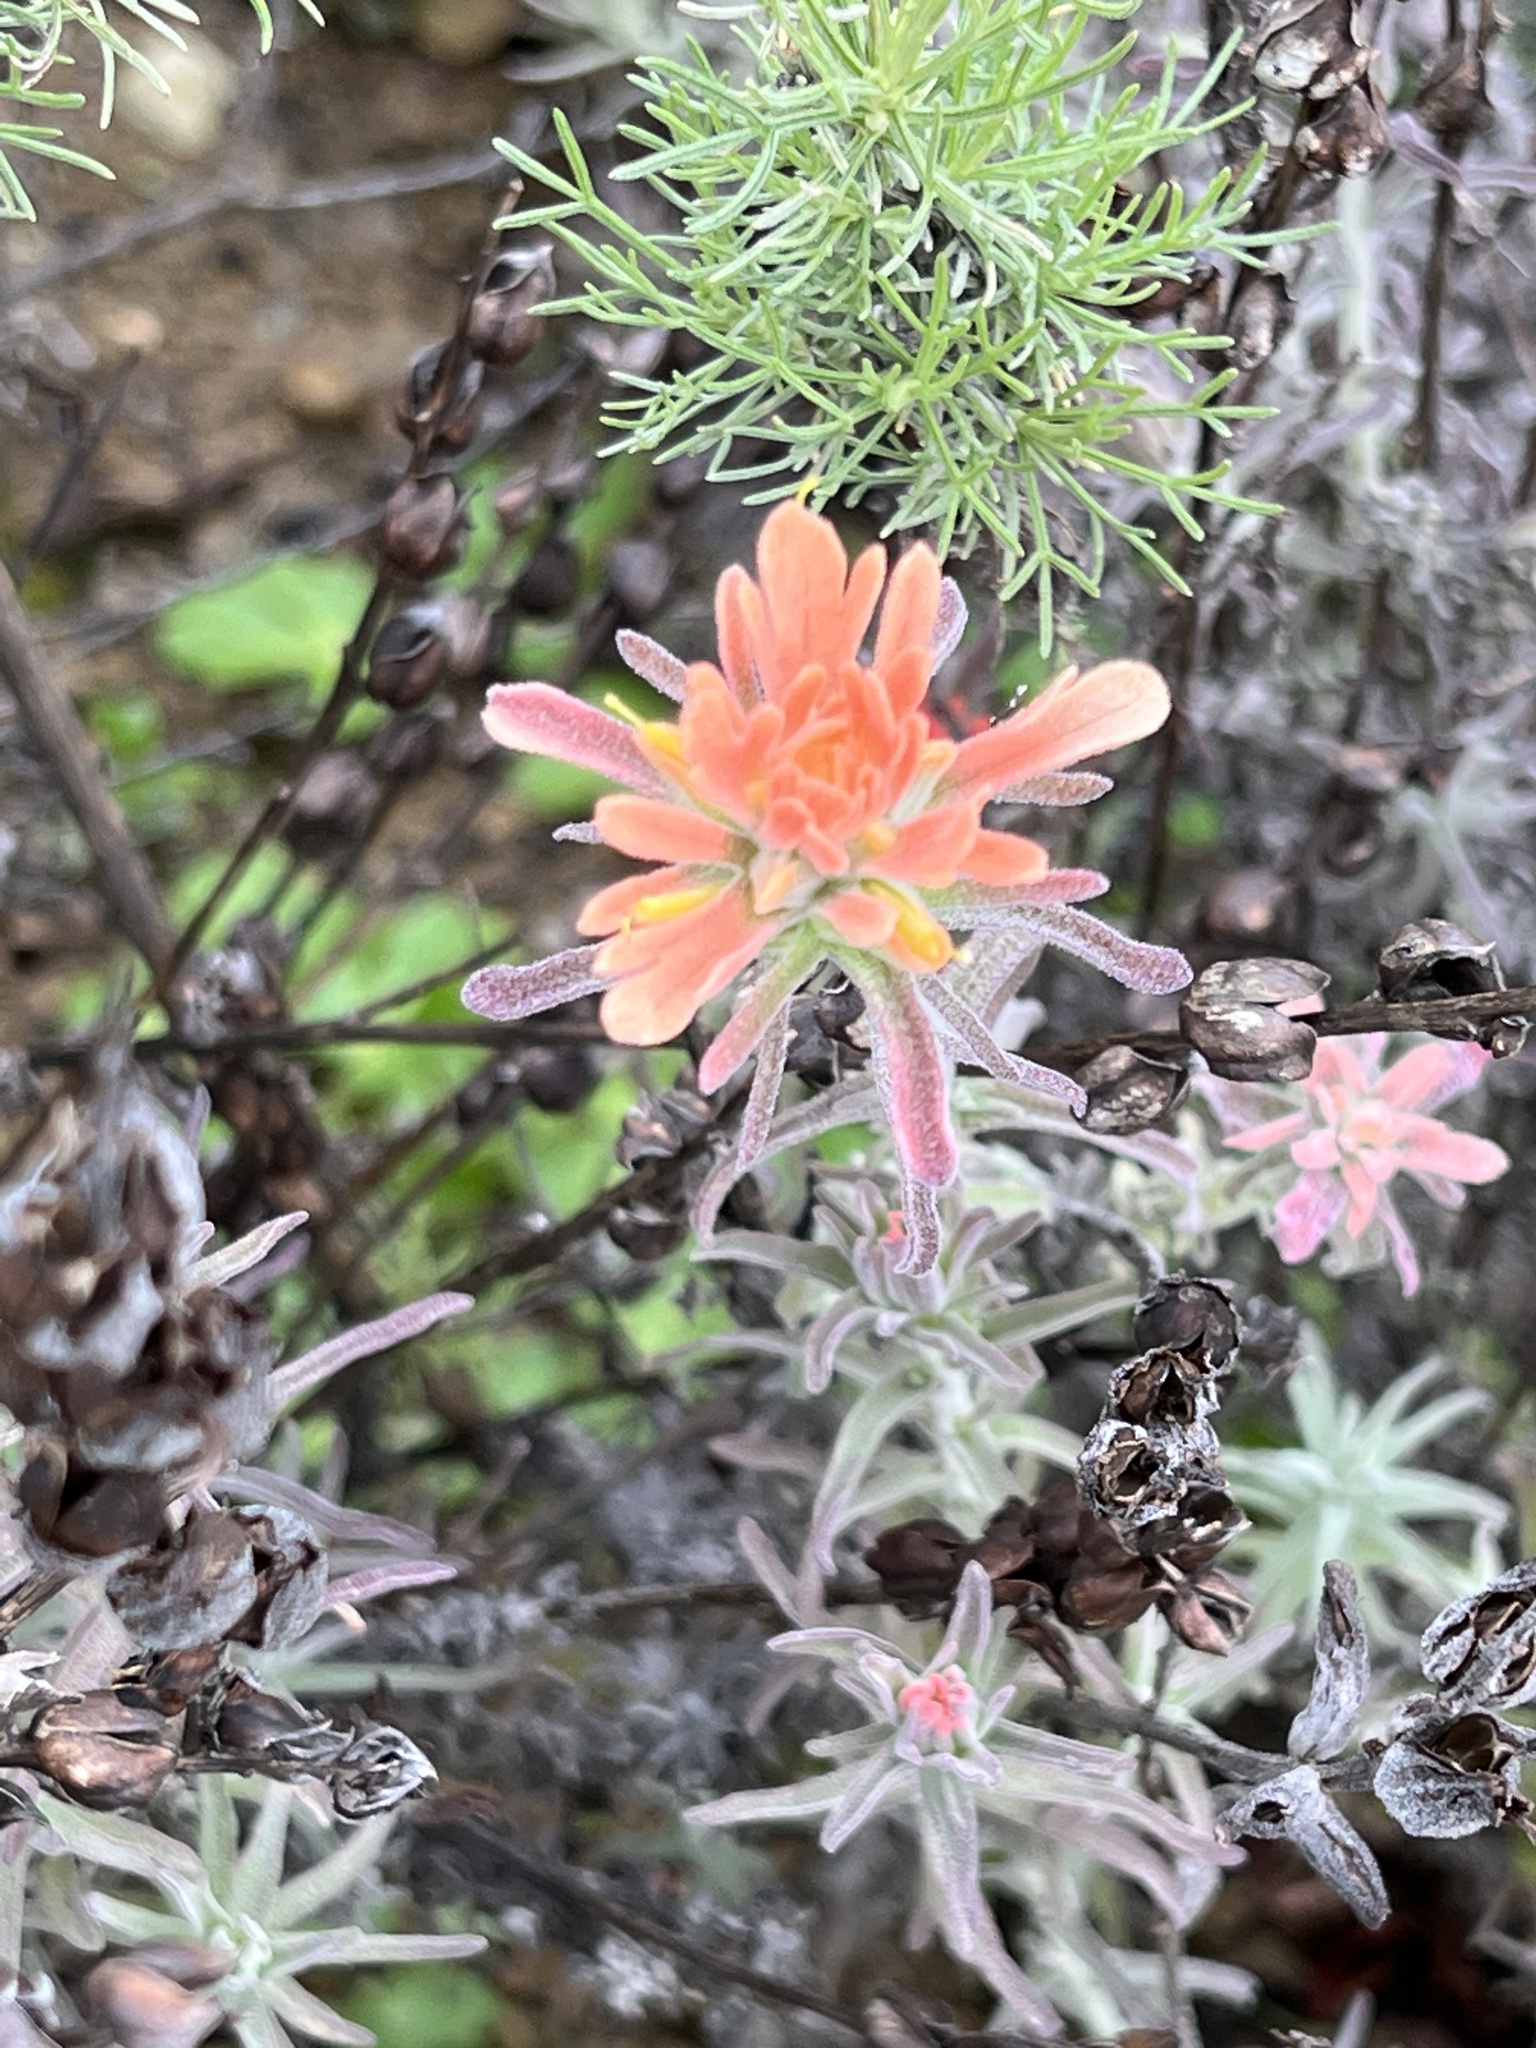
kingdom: Plantae
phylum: Tracheophyta
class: Magnoliopsida
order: Lamiales
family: Orobanchaceae
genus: Castilleja
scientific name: Castilleja foliolosa
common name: Woolly indian paintbrush
